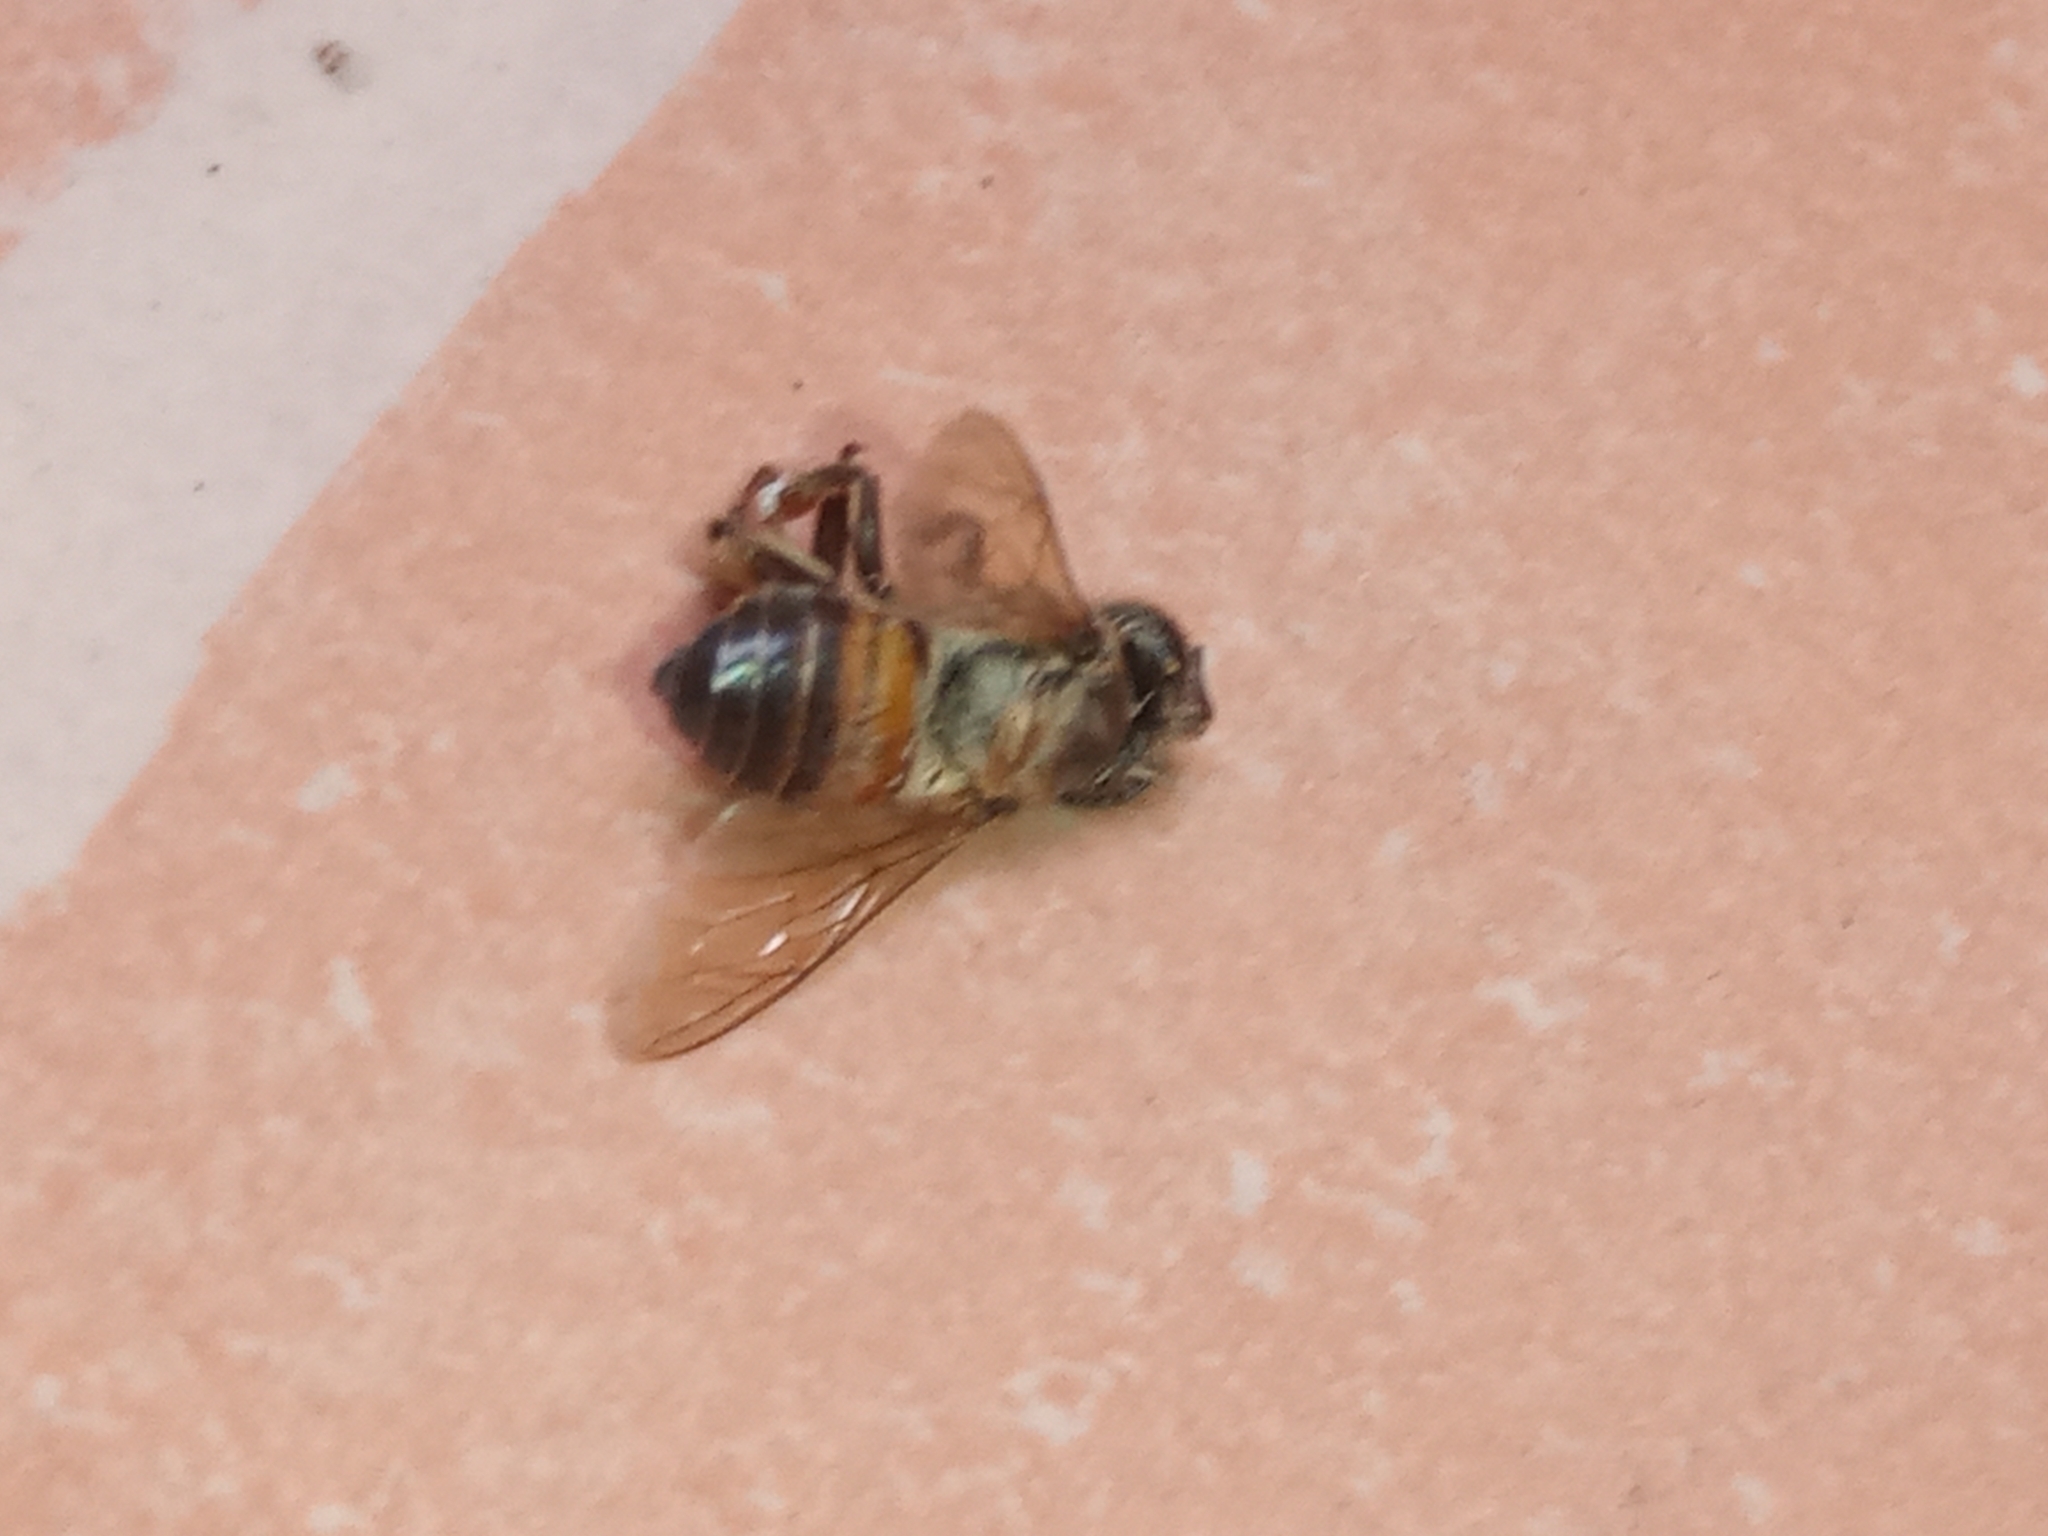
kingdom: Animalia
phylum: Arthropoda
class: Insecta
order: Hymenoptera
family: Apidae
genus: Apis
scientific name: Apis mellifera
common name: Honey bee
